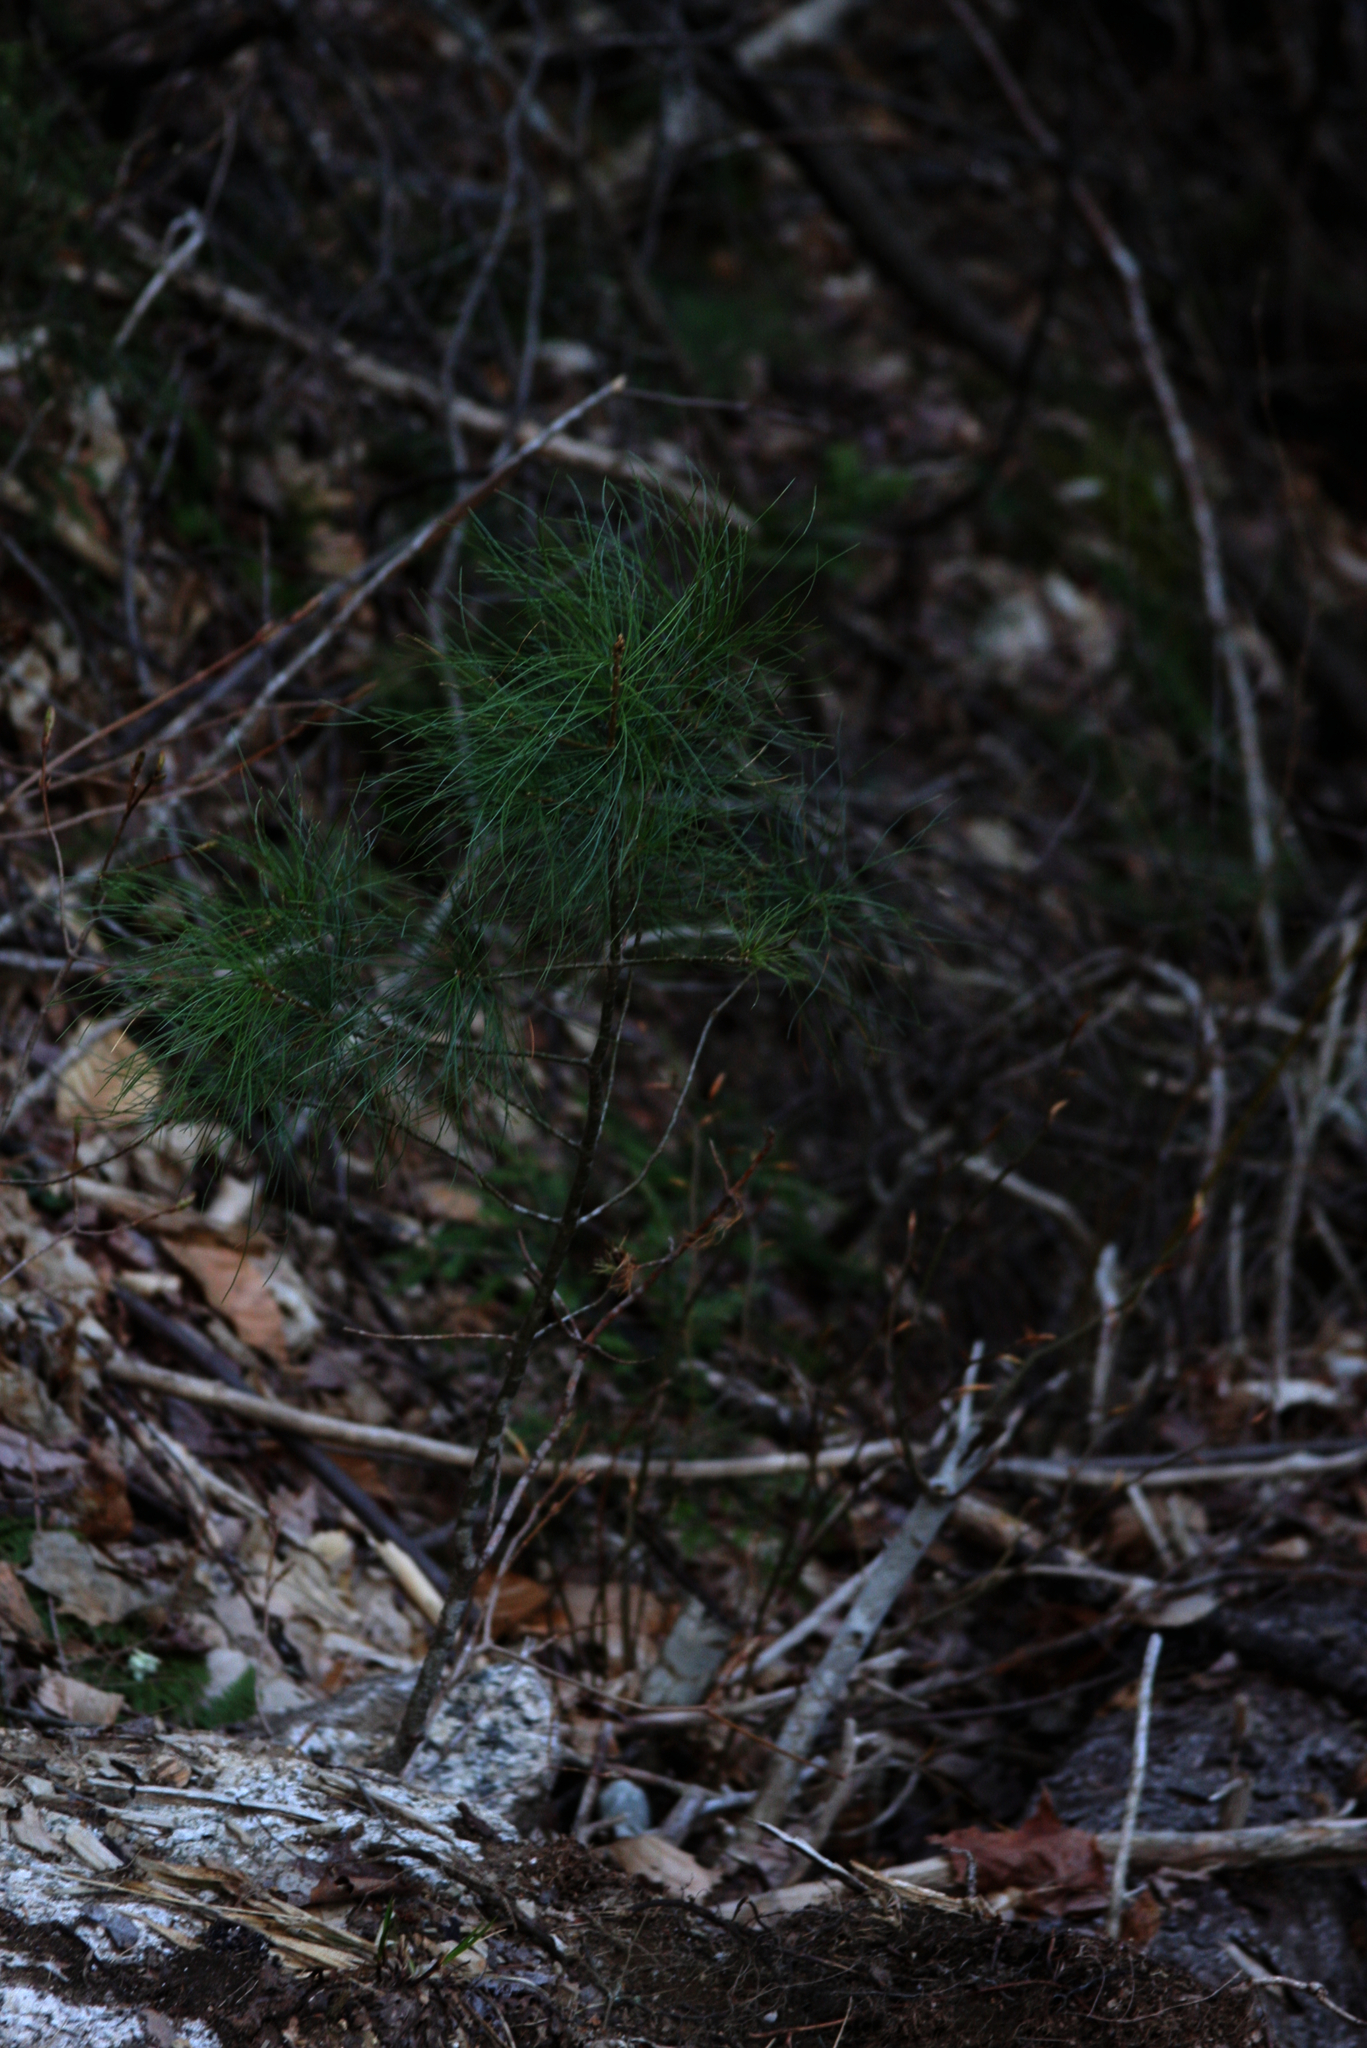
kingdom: Plantae
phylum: Tracheophyta
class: Pinopsida
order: Pinales
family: Pinaceae
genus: Pinus
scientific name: Pinus strobus
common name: Weymouth pine
